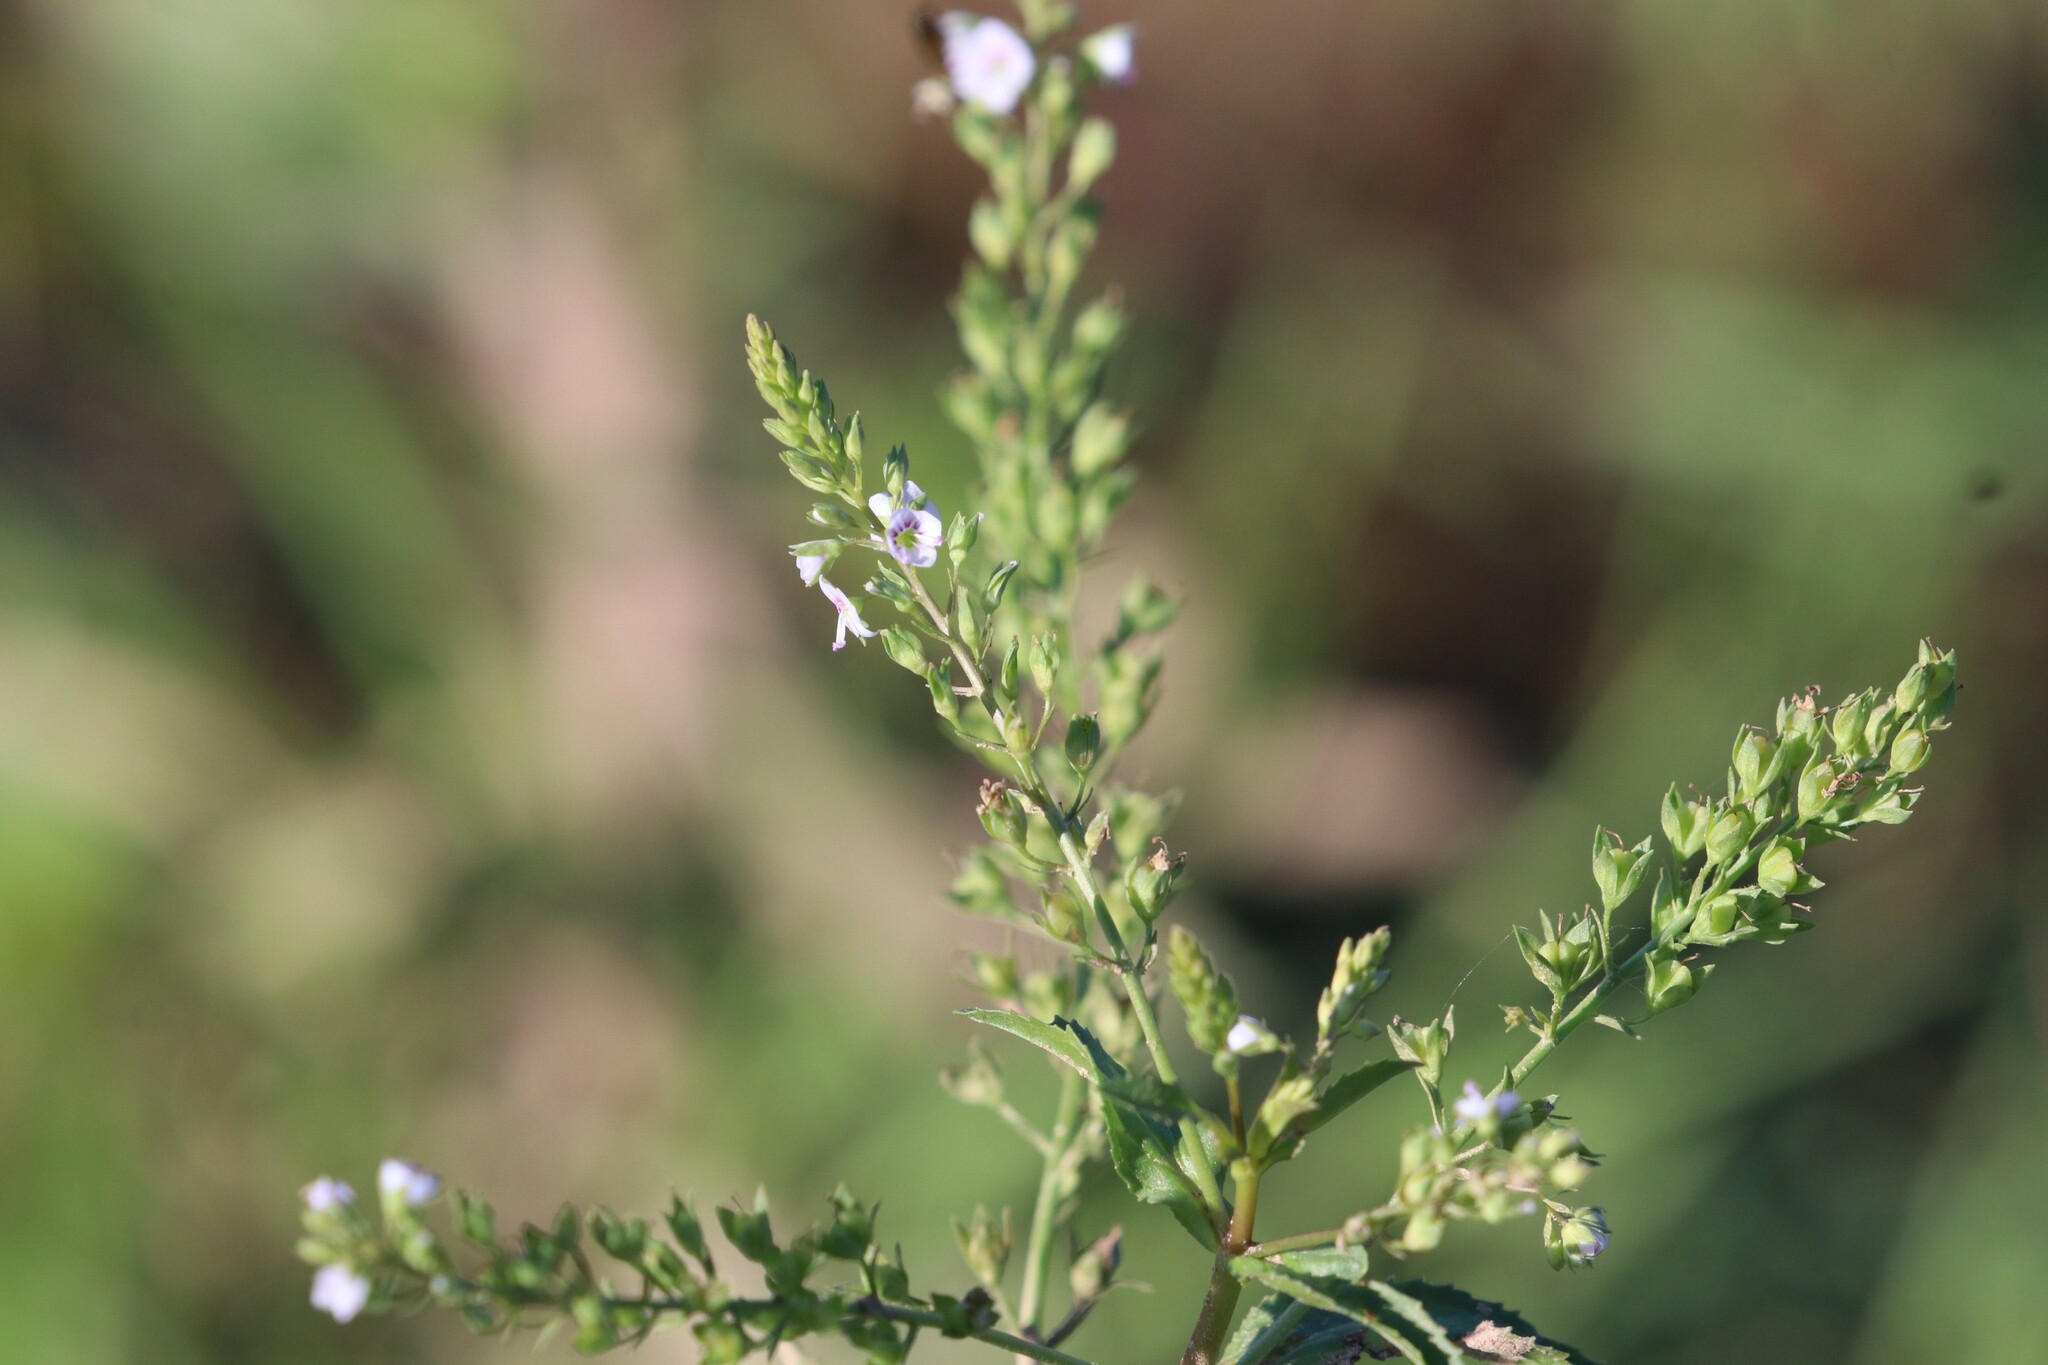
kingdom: Plantae
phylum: Tracheophyta
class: Magnoliopsida
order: Lamiales
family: Plantaginaceae
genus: Veronica
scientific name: Veronica anagallis-aquatica
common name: Water speedwell
